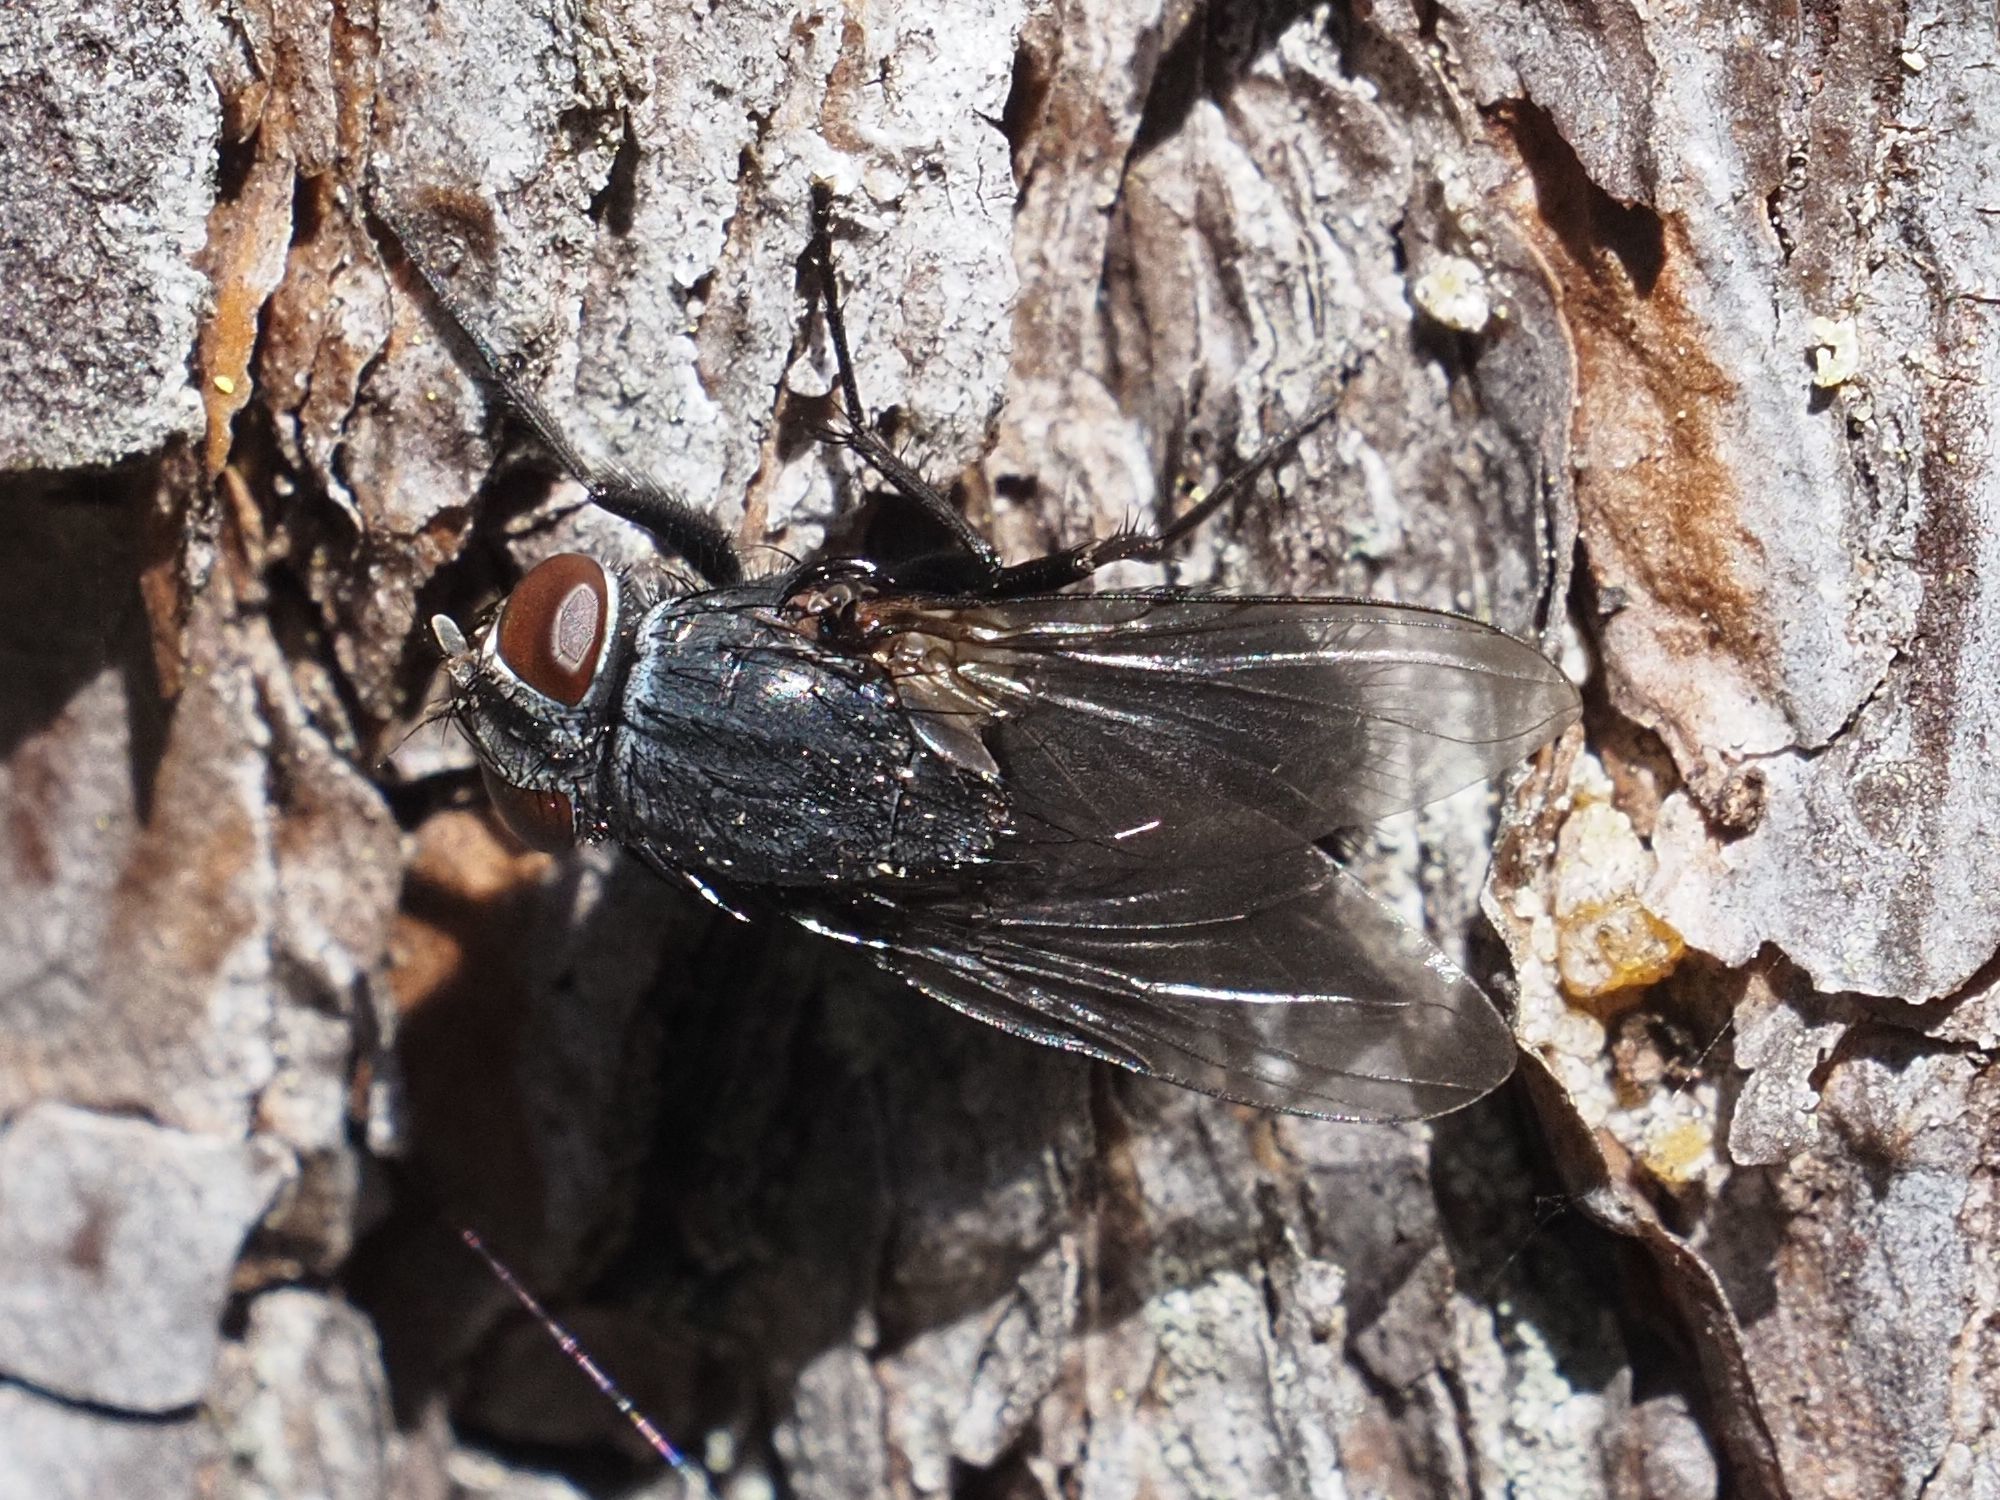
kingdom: Animalia
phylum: Arthropoda
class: Insecta
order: Diptera
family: Muscidae
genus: Muscina
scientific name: Muscina pascuorum
